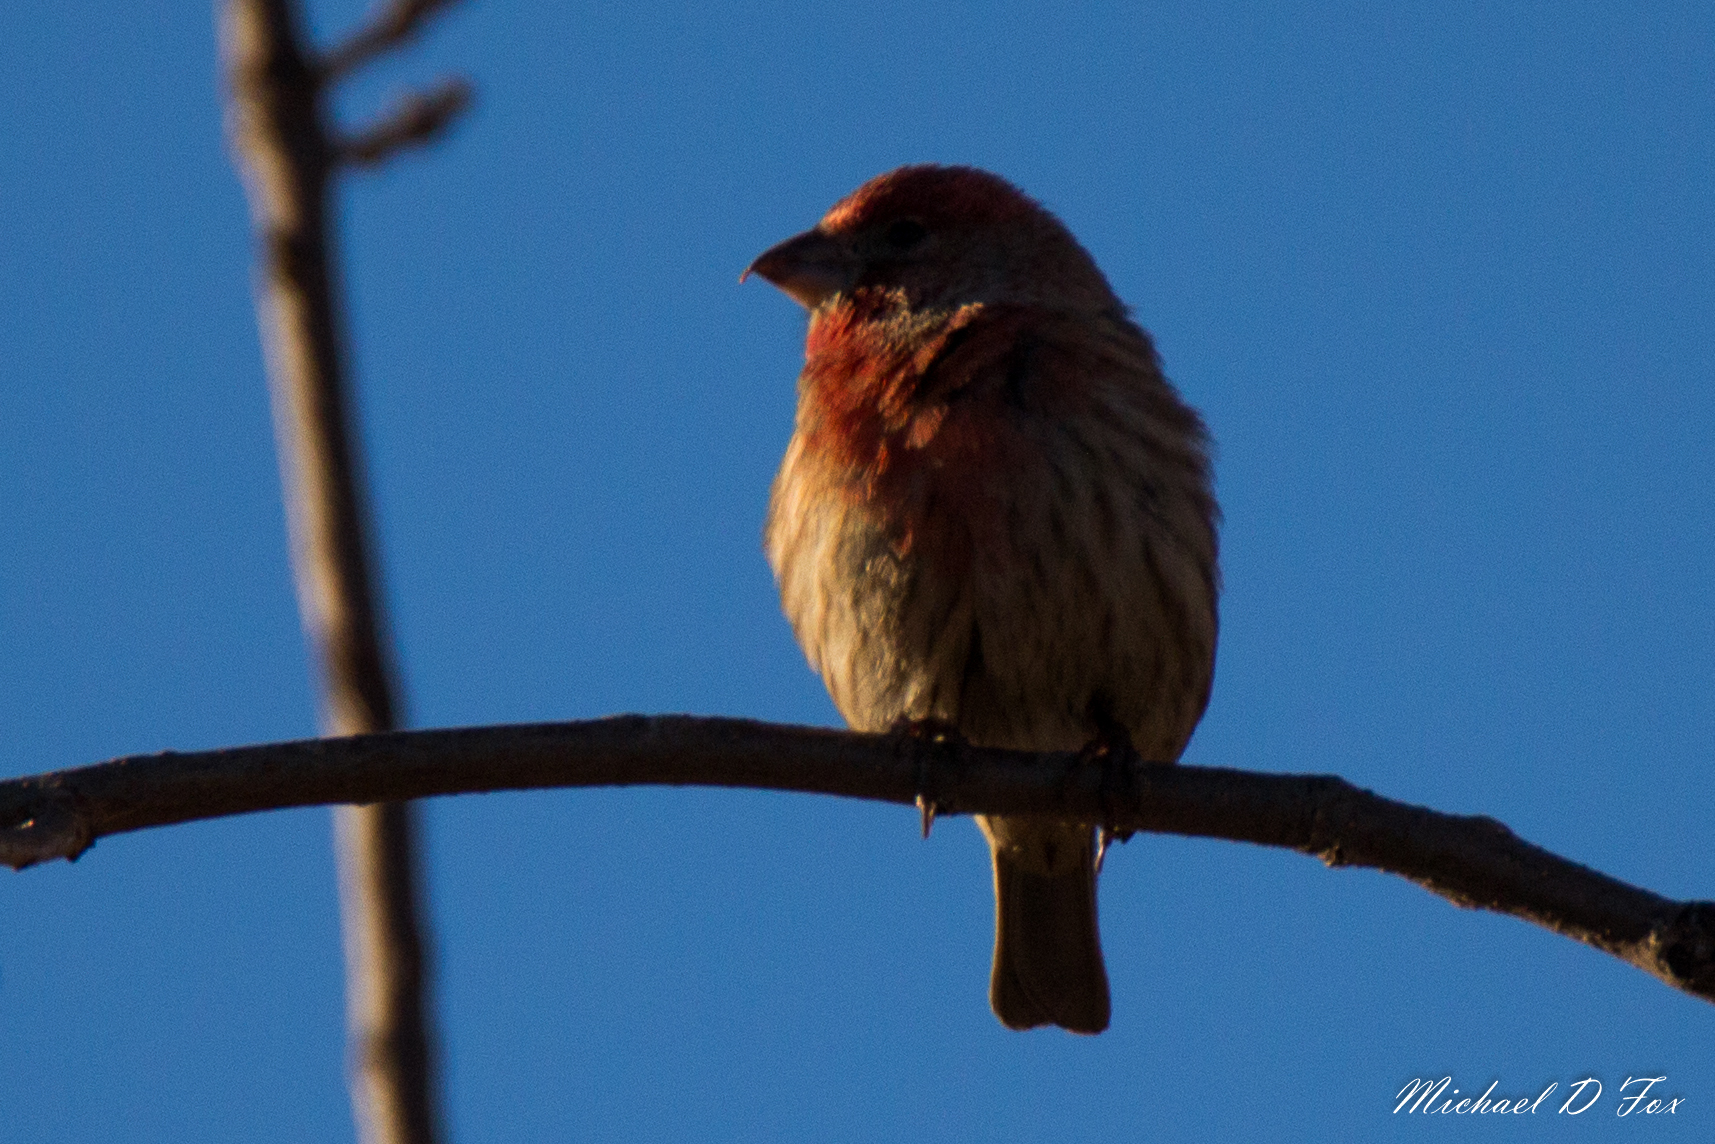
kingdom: Animalia
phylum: Chordata
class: Aves
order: Passeriformes
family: Fringillidae
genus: Haemorhous
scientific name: Haemorhous mexicanus
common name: House finch
